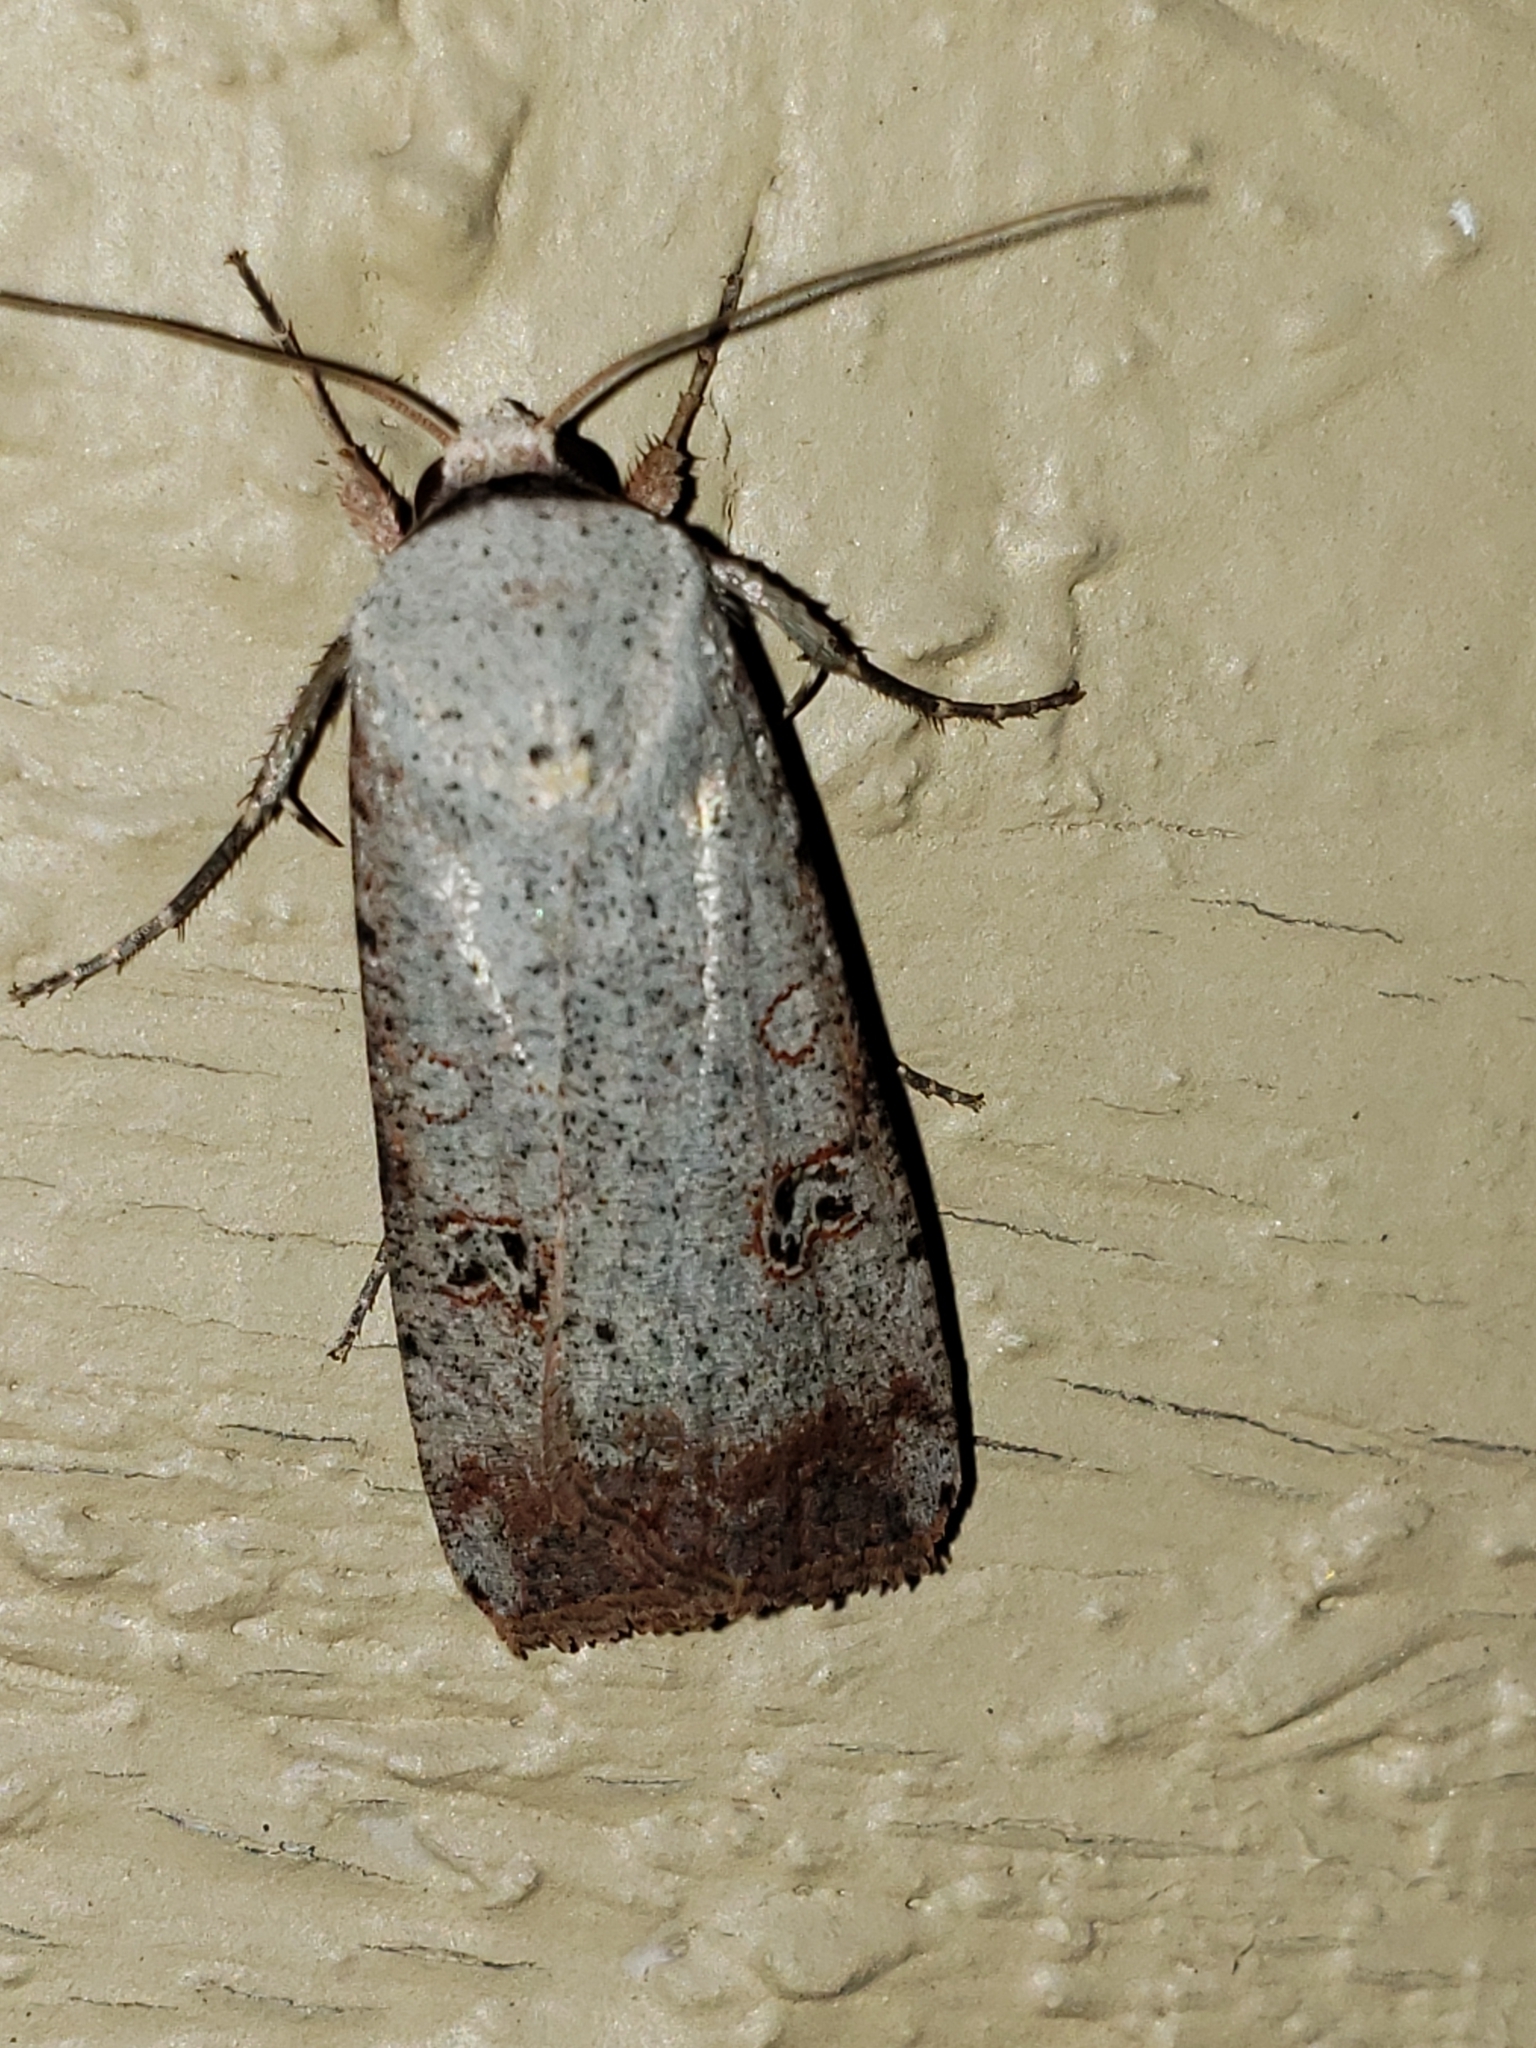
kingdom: Animalia
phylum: Arthropoda
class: Insecta
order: Lepidoptera
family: Noctuidae
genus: Anicla
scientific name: Anicla infecta
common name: Green cutworm
